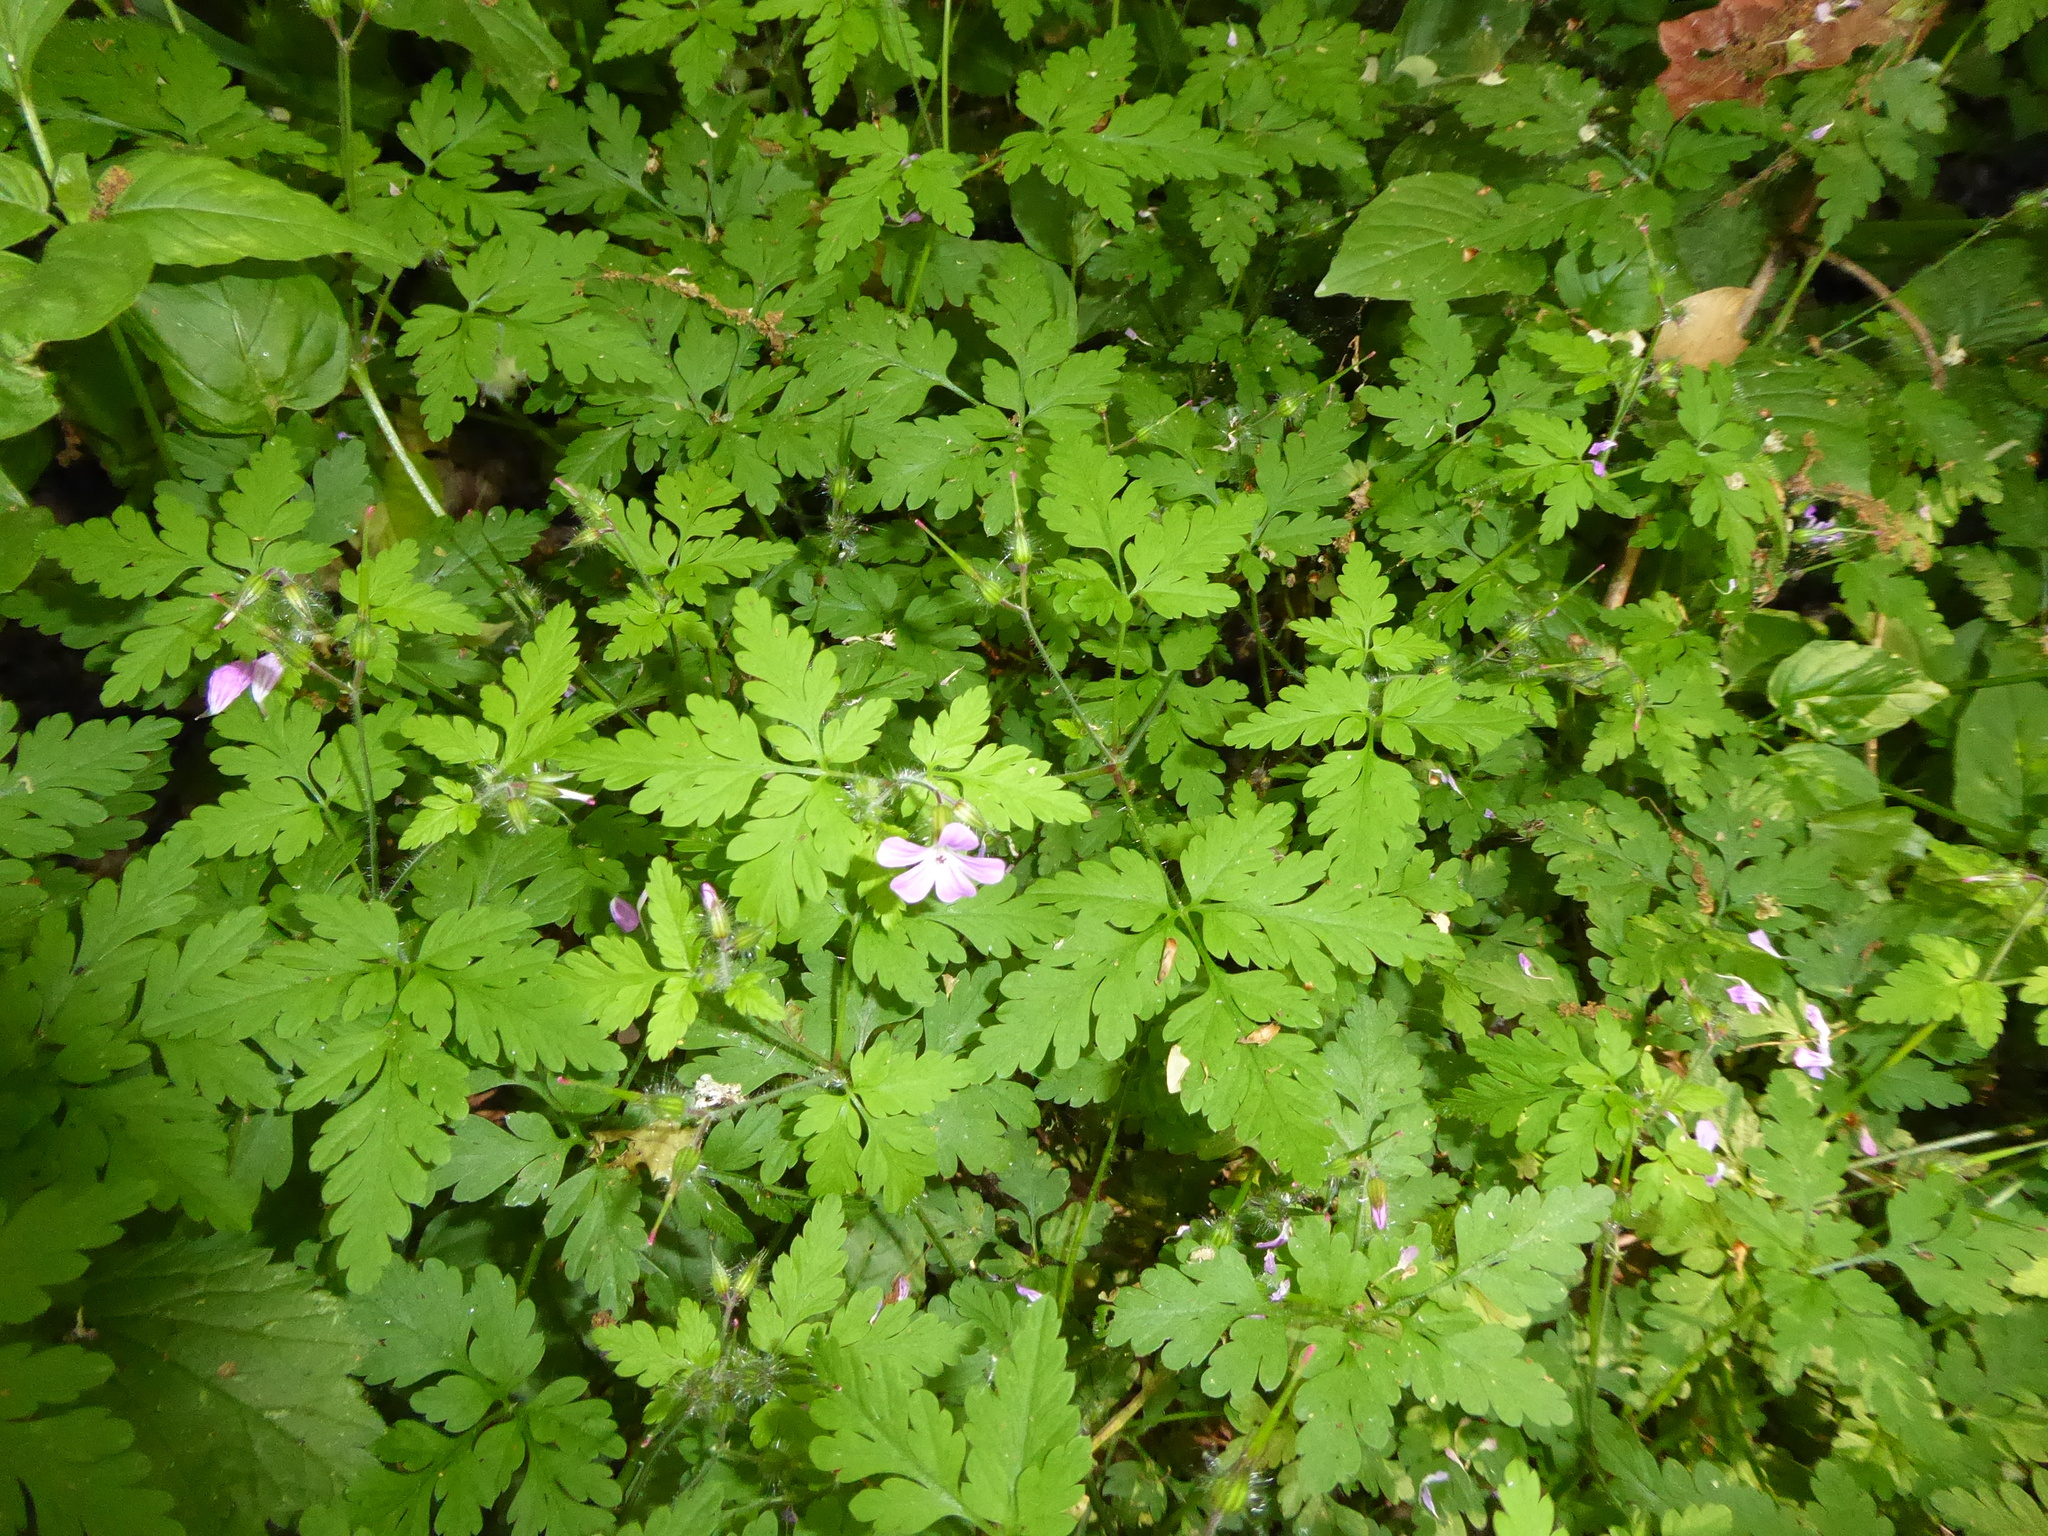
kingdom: Plantae
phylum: Tracheophyta
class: Magnoliopsida
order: Geraniales
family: Geraniaceae
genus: Geranium
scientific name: Geranium robertianum
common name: Herb-robert
